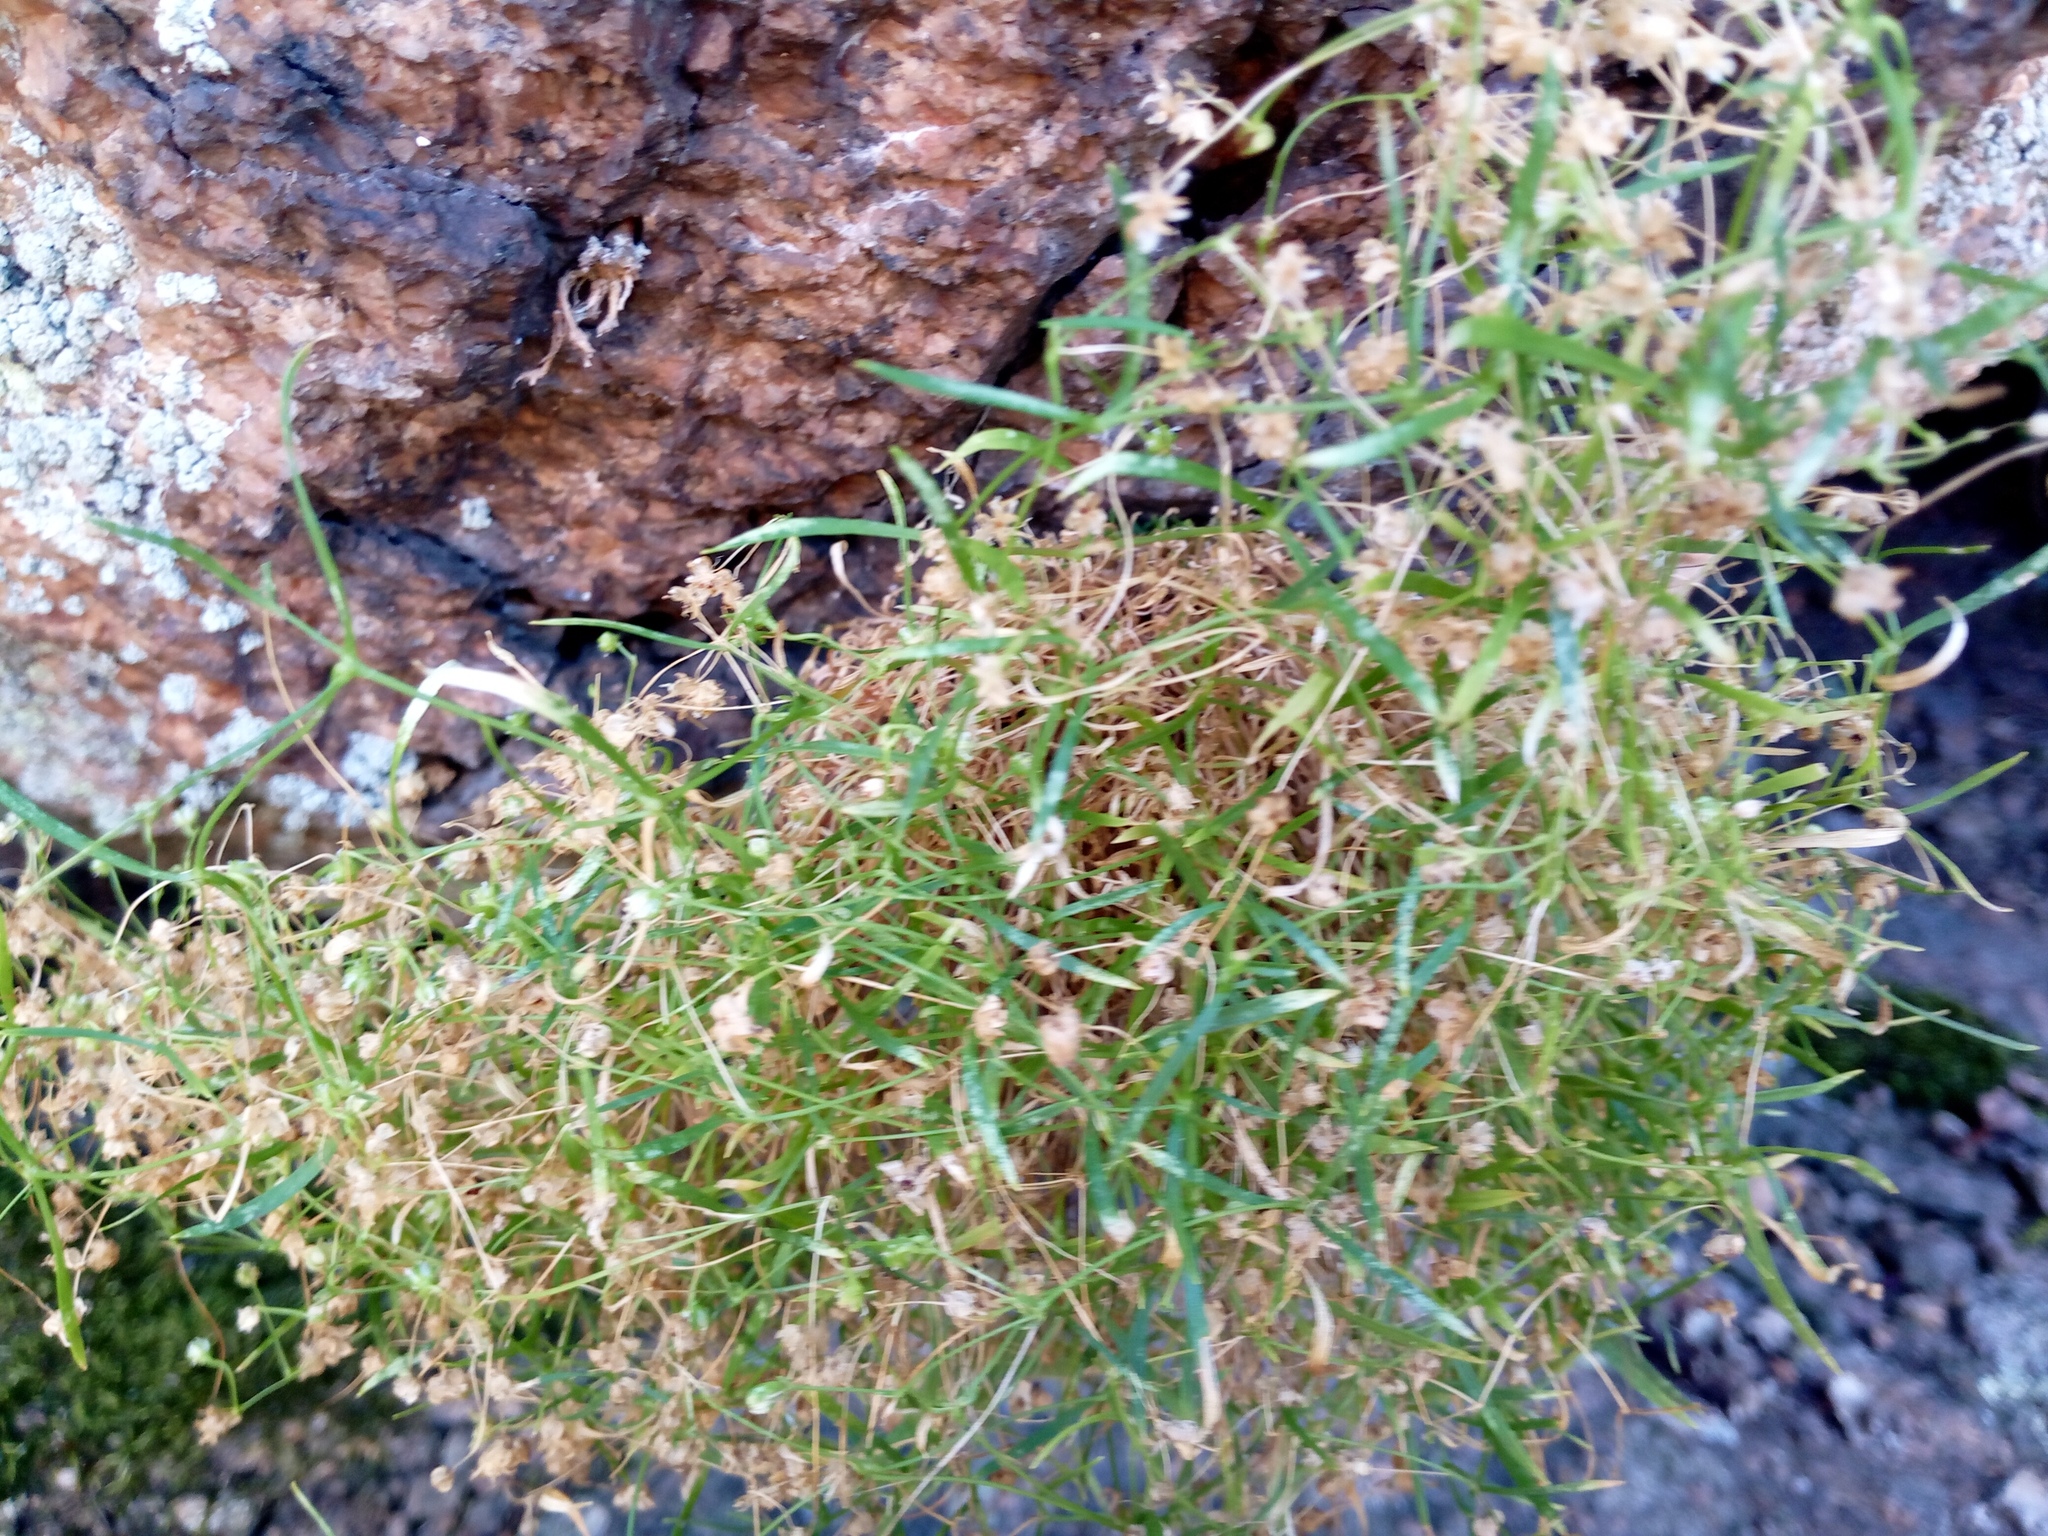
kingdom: Plantae
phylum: Tracheophyta
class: Magnoliopsida
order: Caryophyllales
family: Caryophyllaceae
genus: Moehringia
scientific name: Moehringia hypanica
